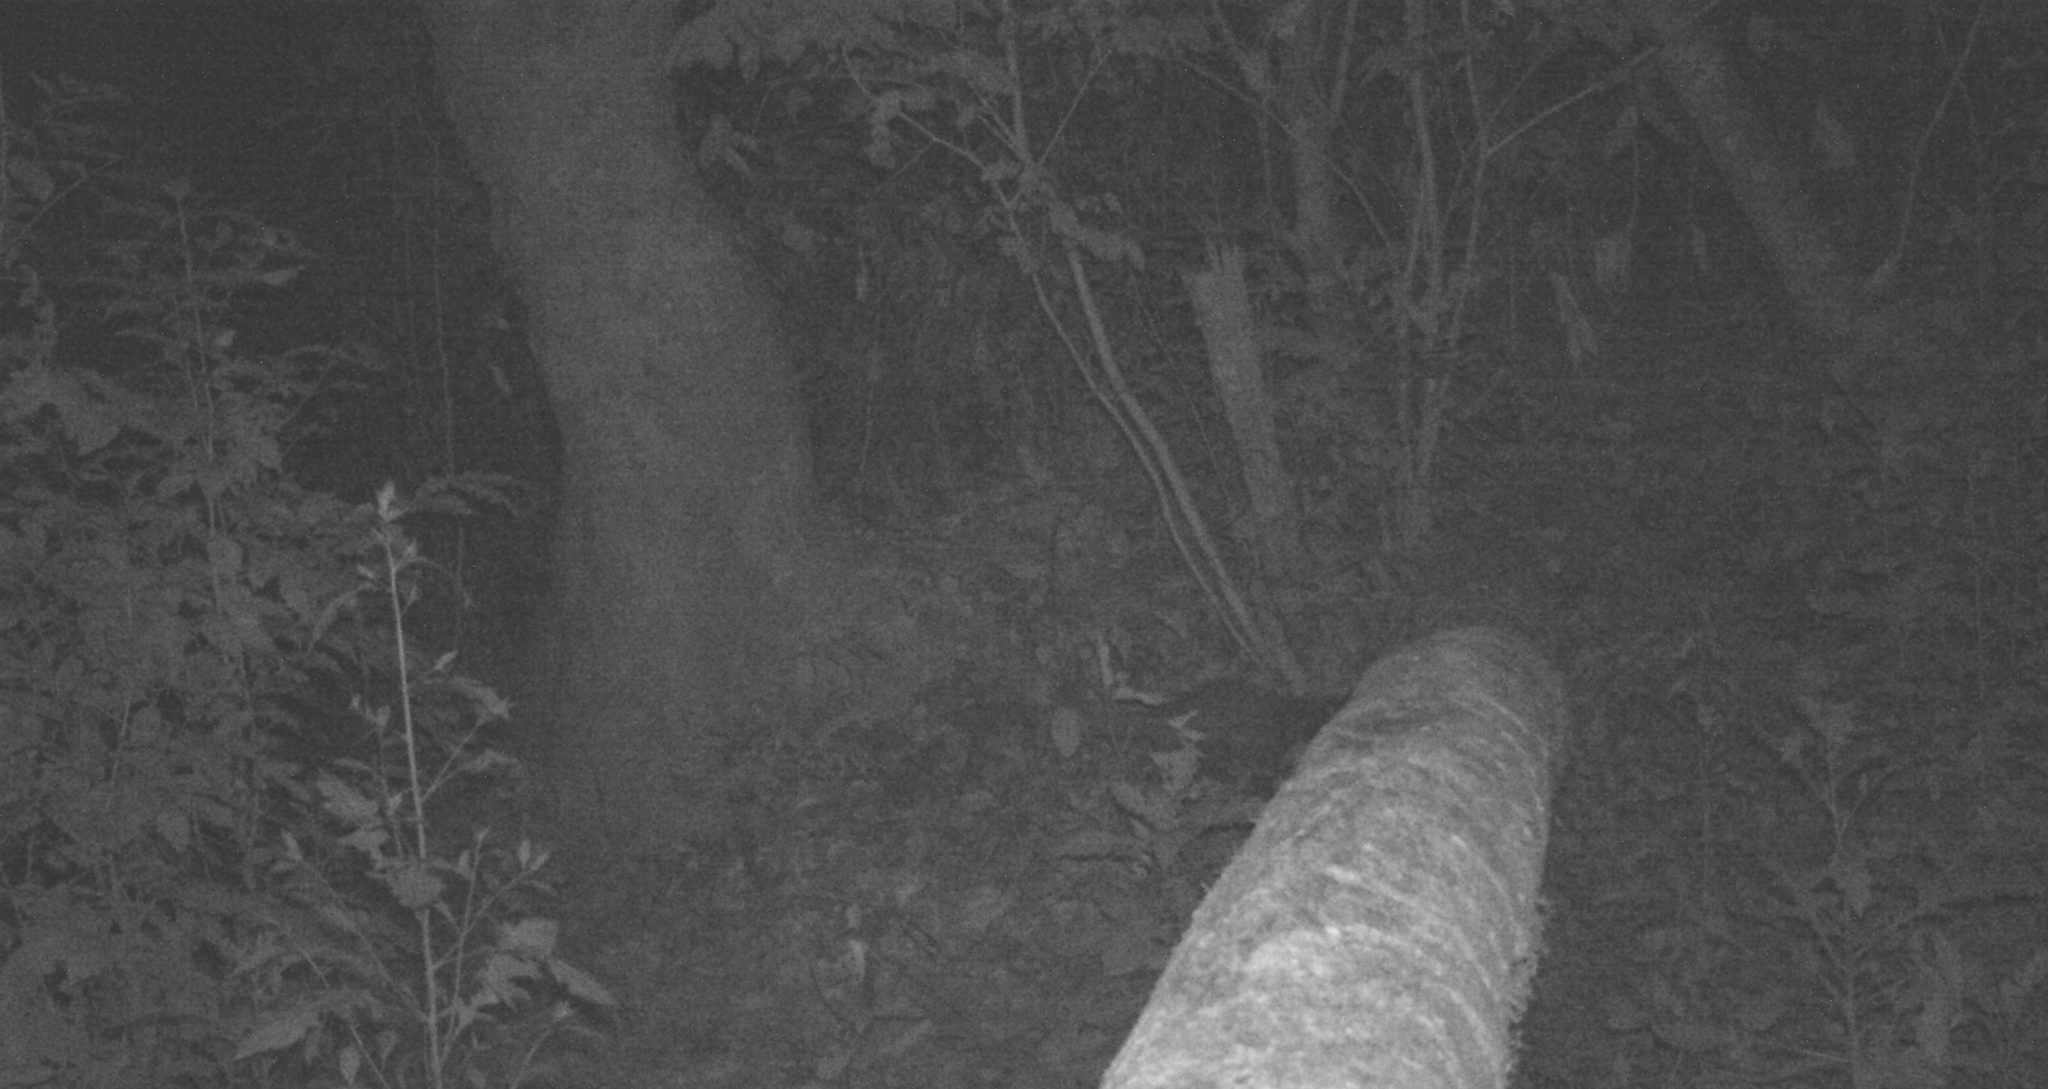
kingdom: Animalia
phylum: Chordata
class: Mammalia
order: Carnivora
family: Viverridae
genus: Paradoxurus
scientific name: Paradoxurus jerdoni
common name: Jerdon's palm civet
